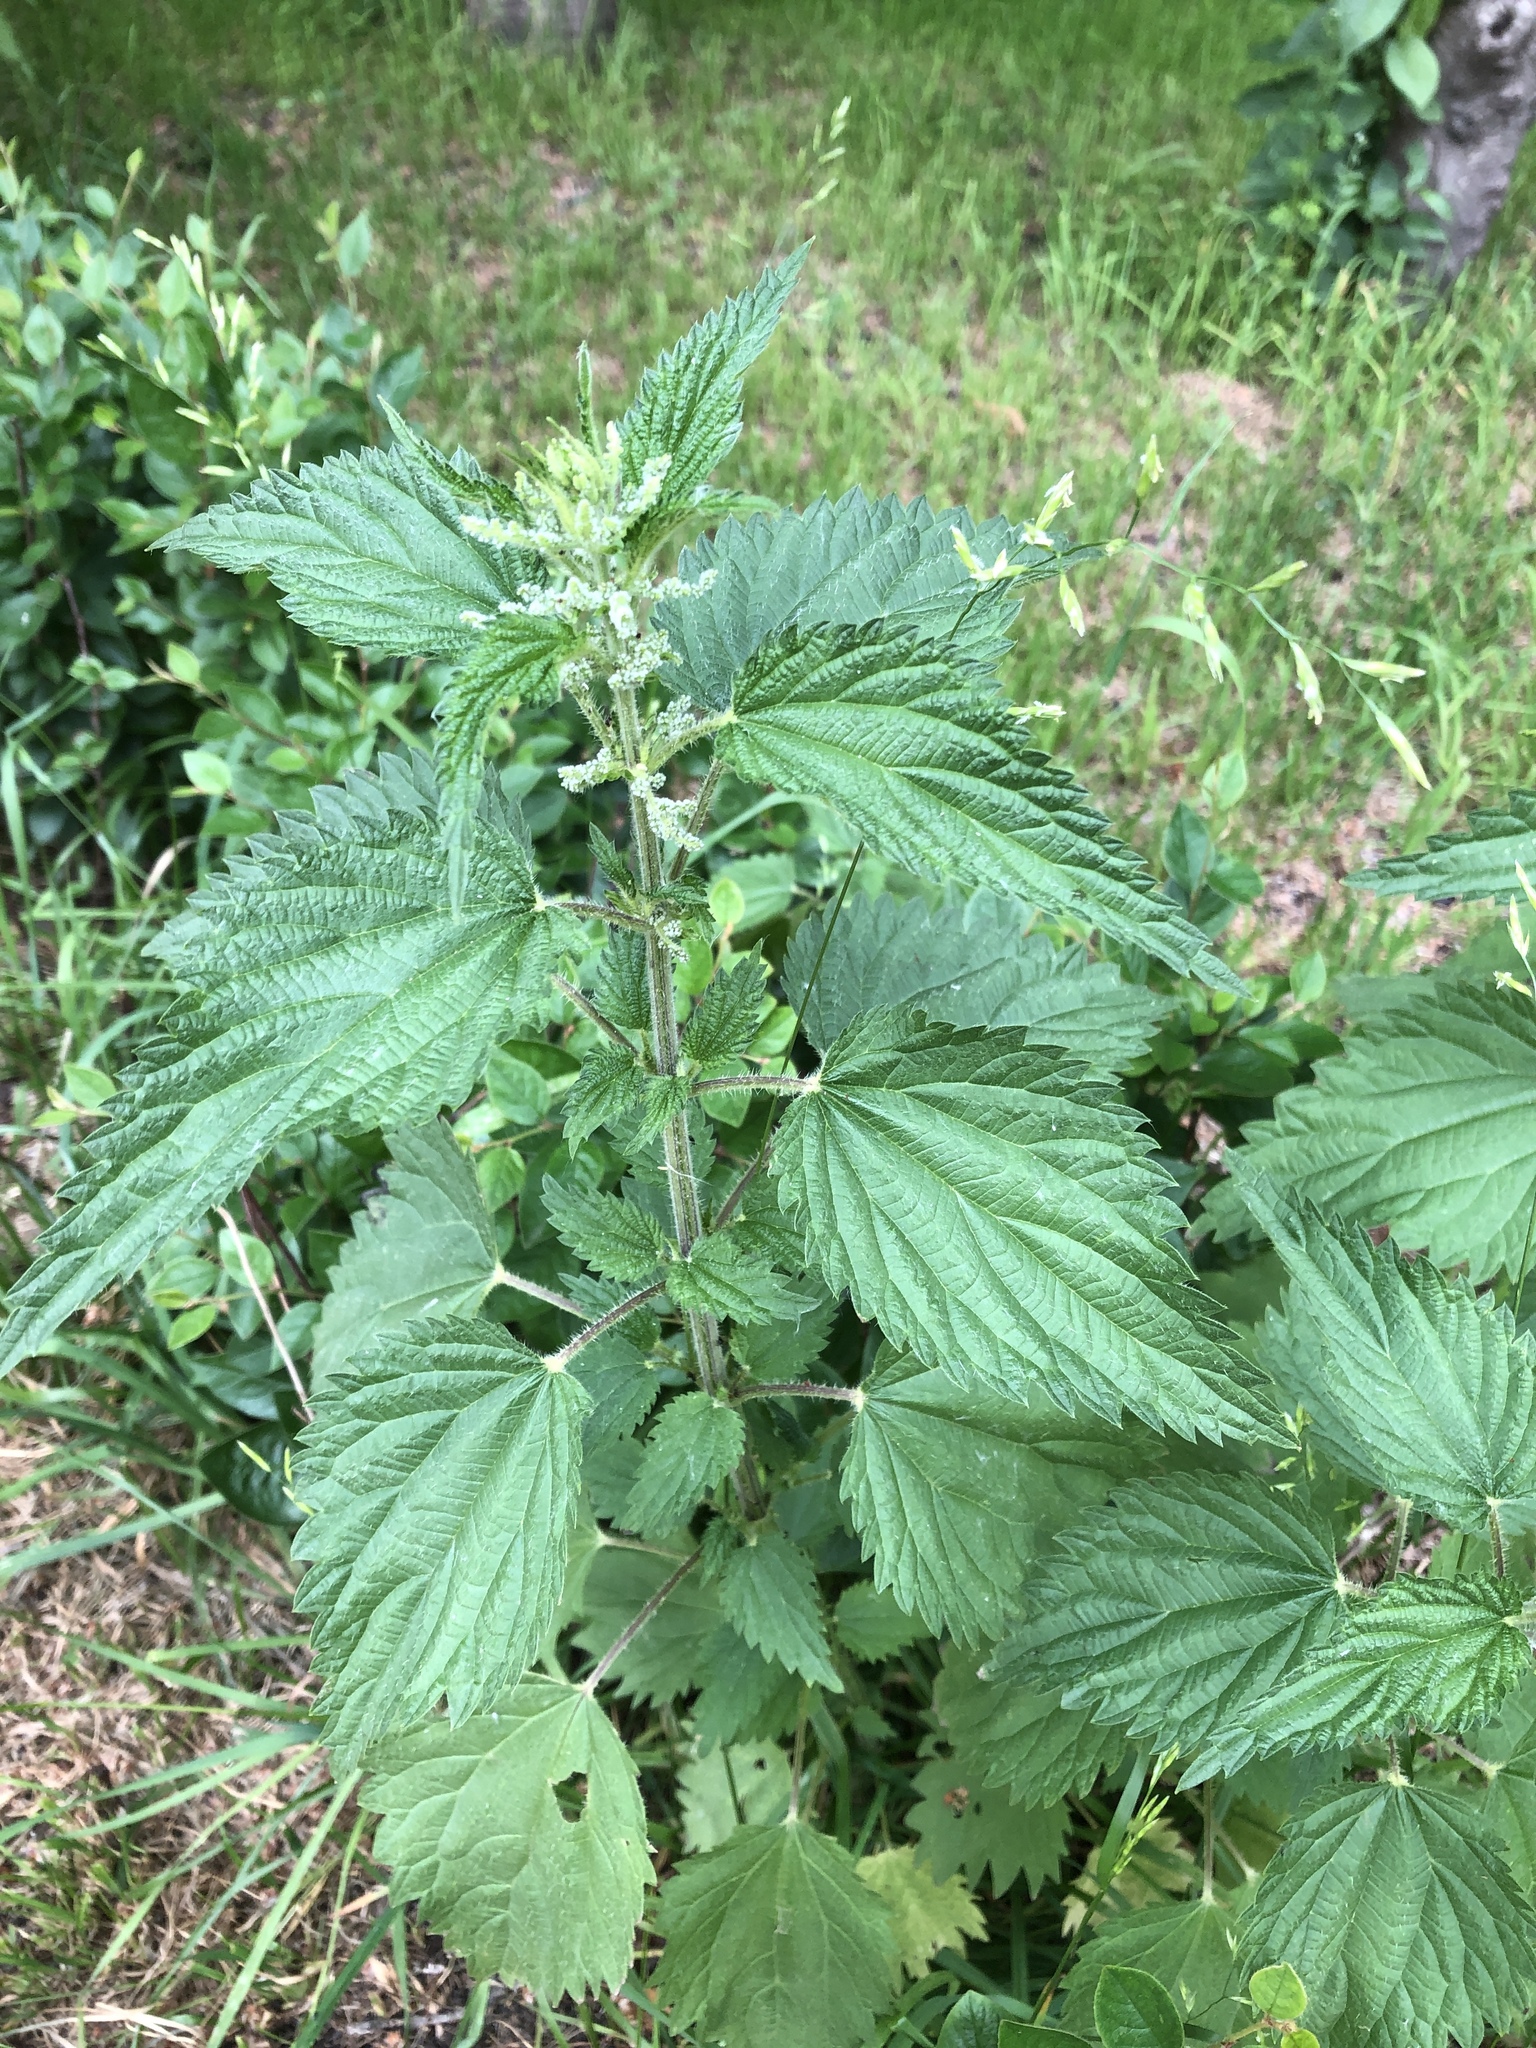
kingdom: Plantae
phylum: Tracheophyta
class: Magnoliopsida
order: Rosales
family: Urticaceae
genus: Urtica
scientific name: Urtica dioica
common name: Common nettle
